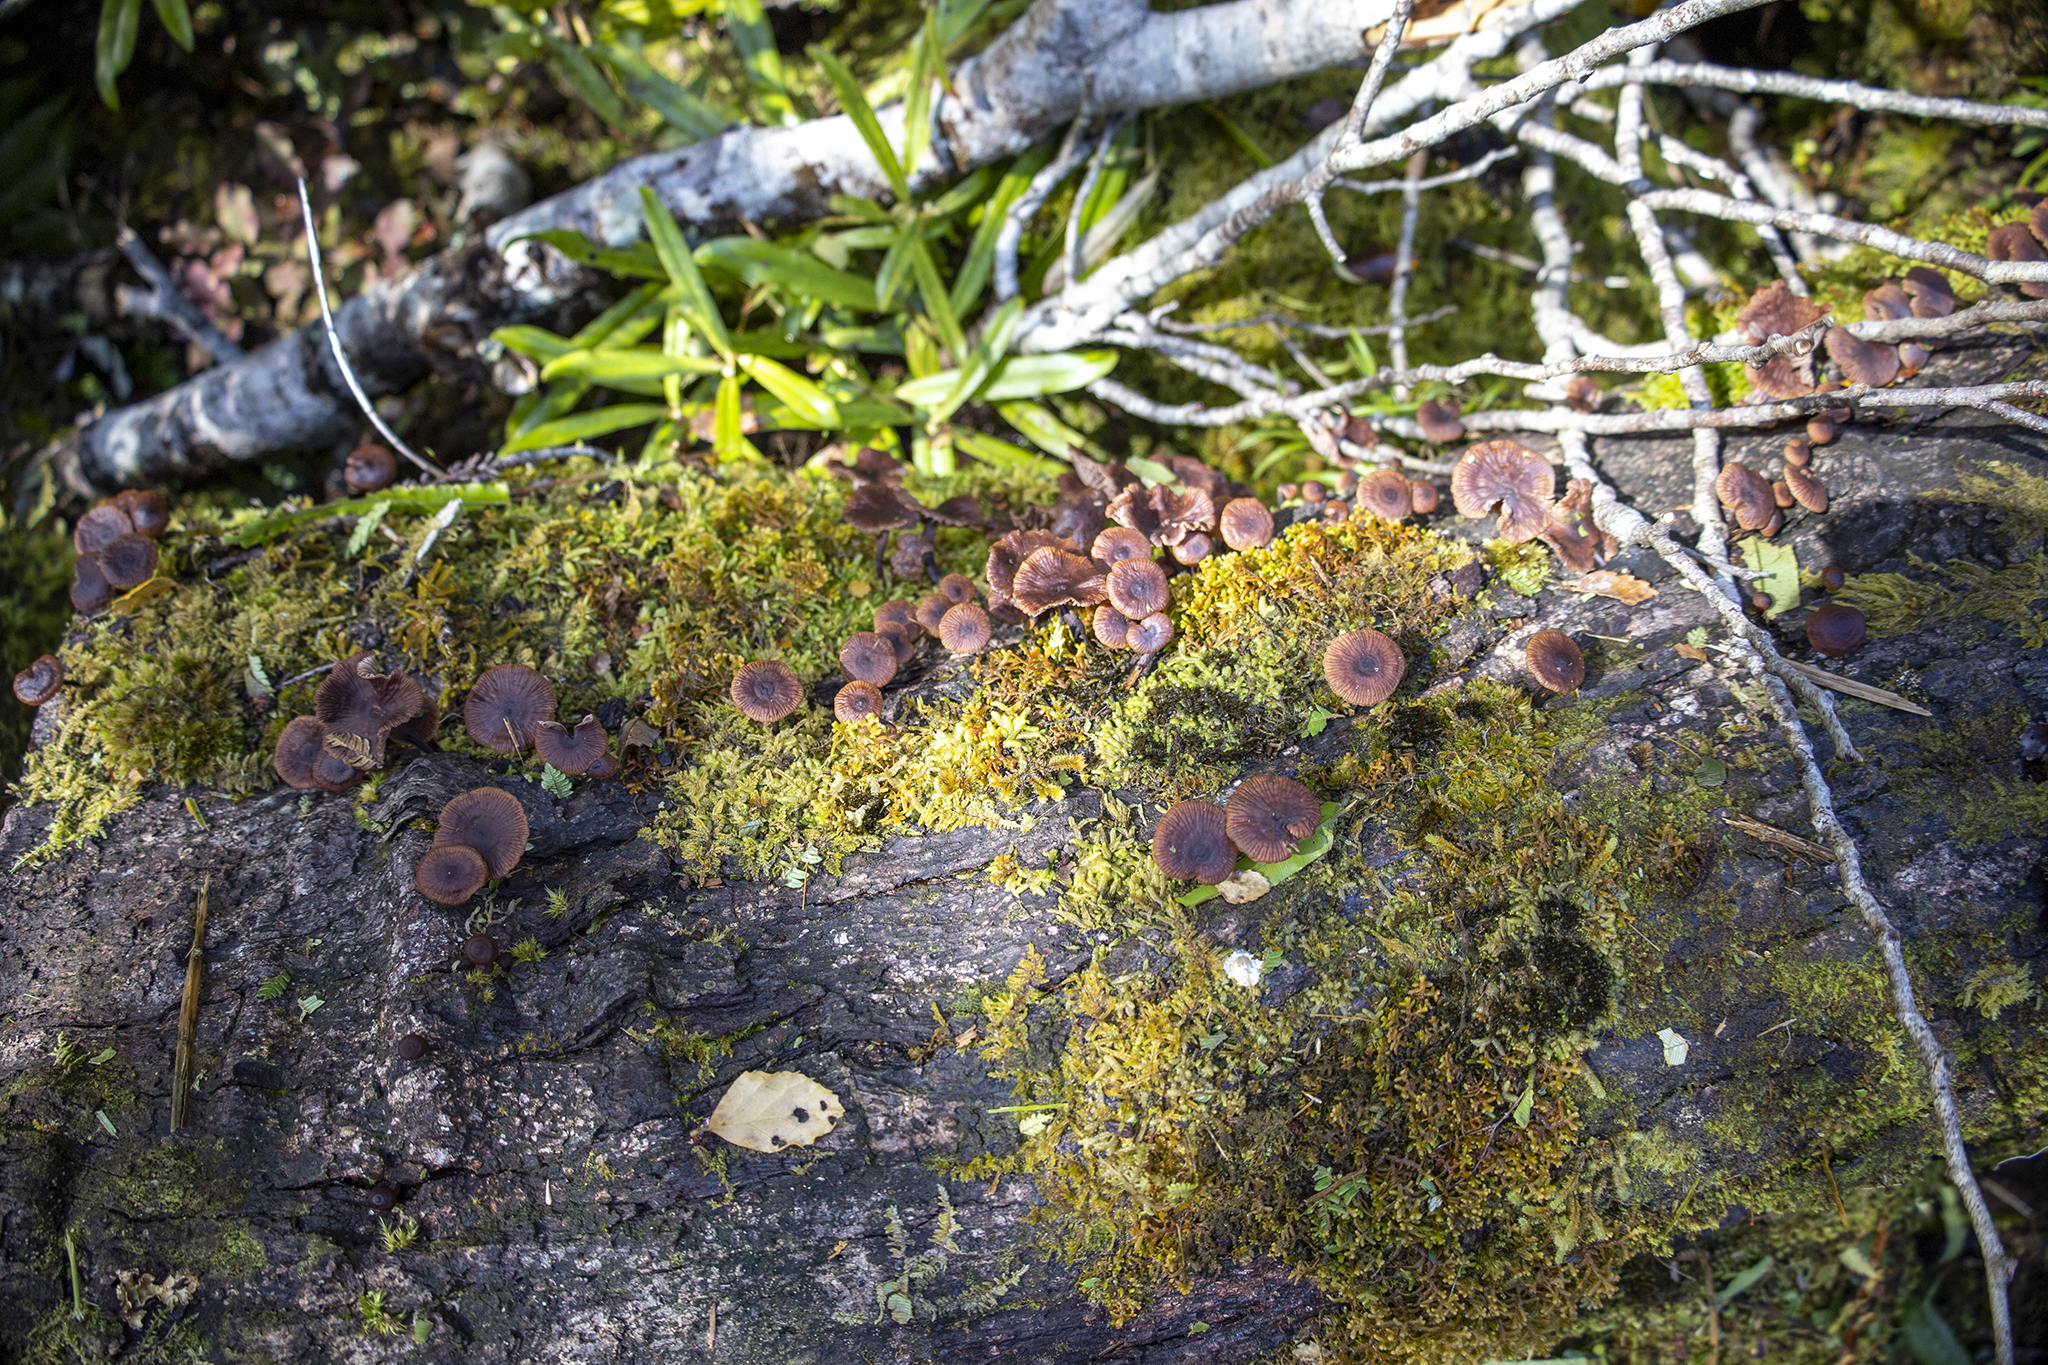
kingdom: Fungi
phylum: Basidiomycota
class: Agaricomycetes
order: Agaricales
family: Omphalotaceae
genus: Gymnopus
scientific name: Gymnopus ceraceicola
